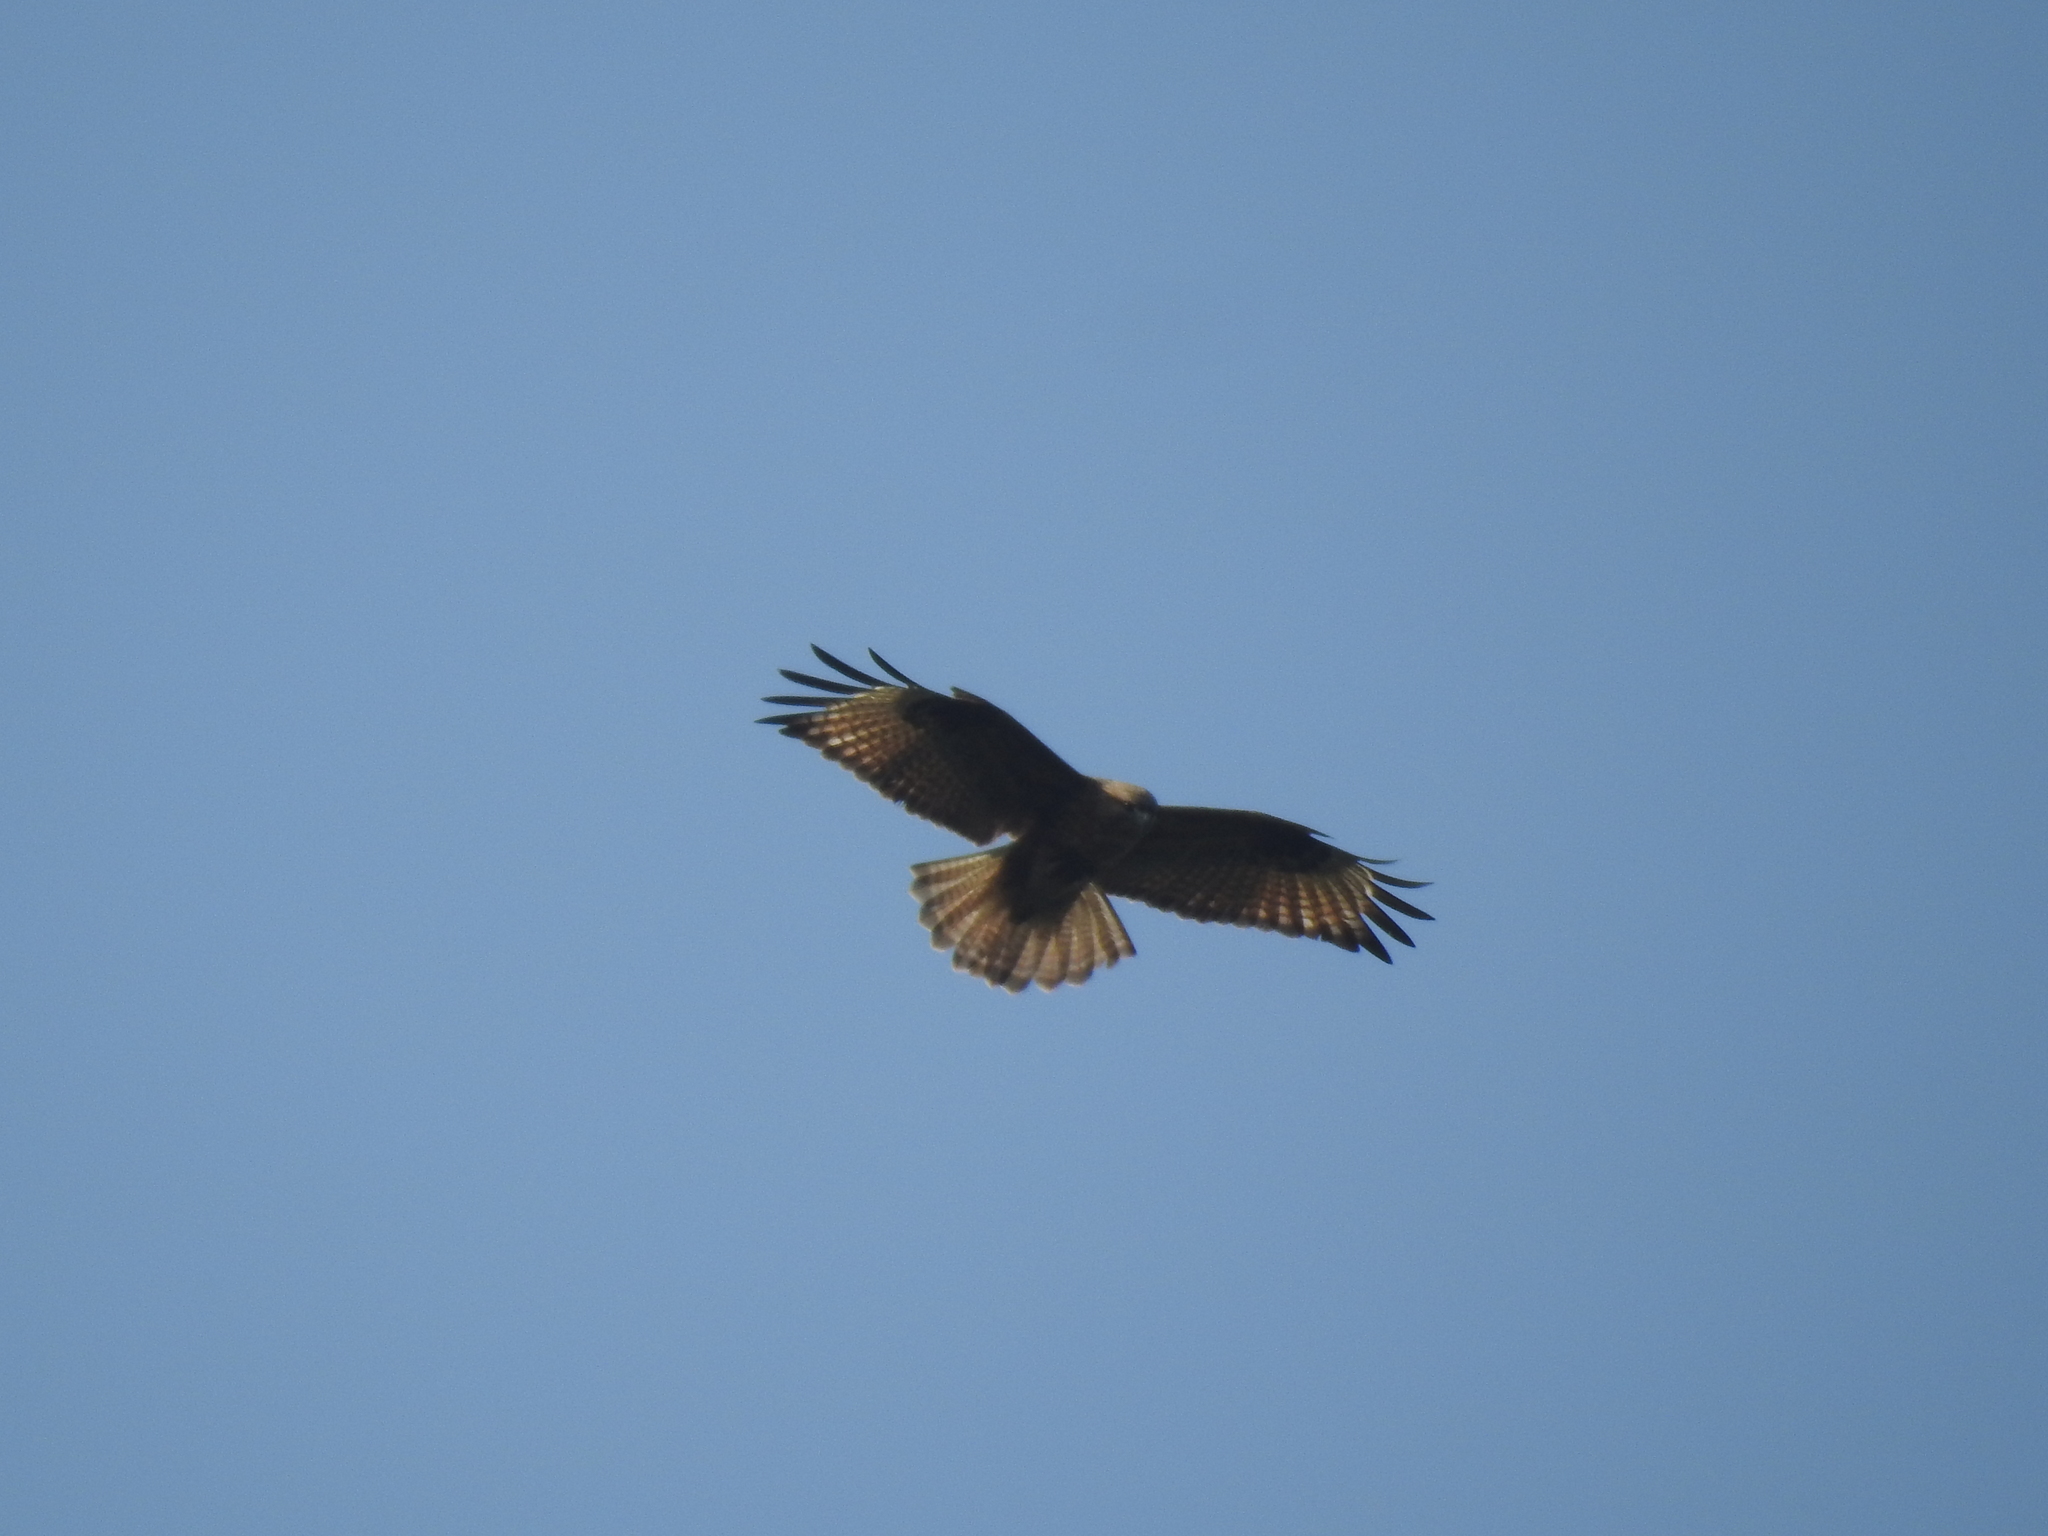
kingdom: Animalia
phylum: Chordata
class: Aves
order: Accipitriformes
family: Accipitridae
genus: Buteo
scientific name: Buteo japonicus
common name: Eastern buzzard
